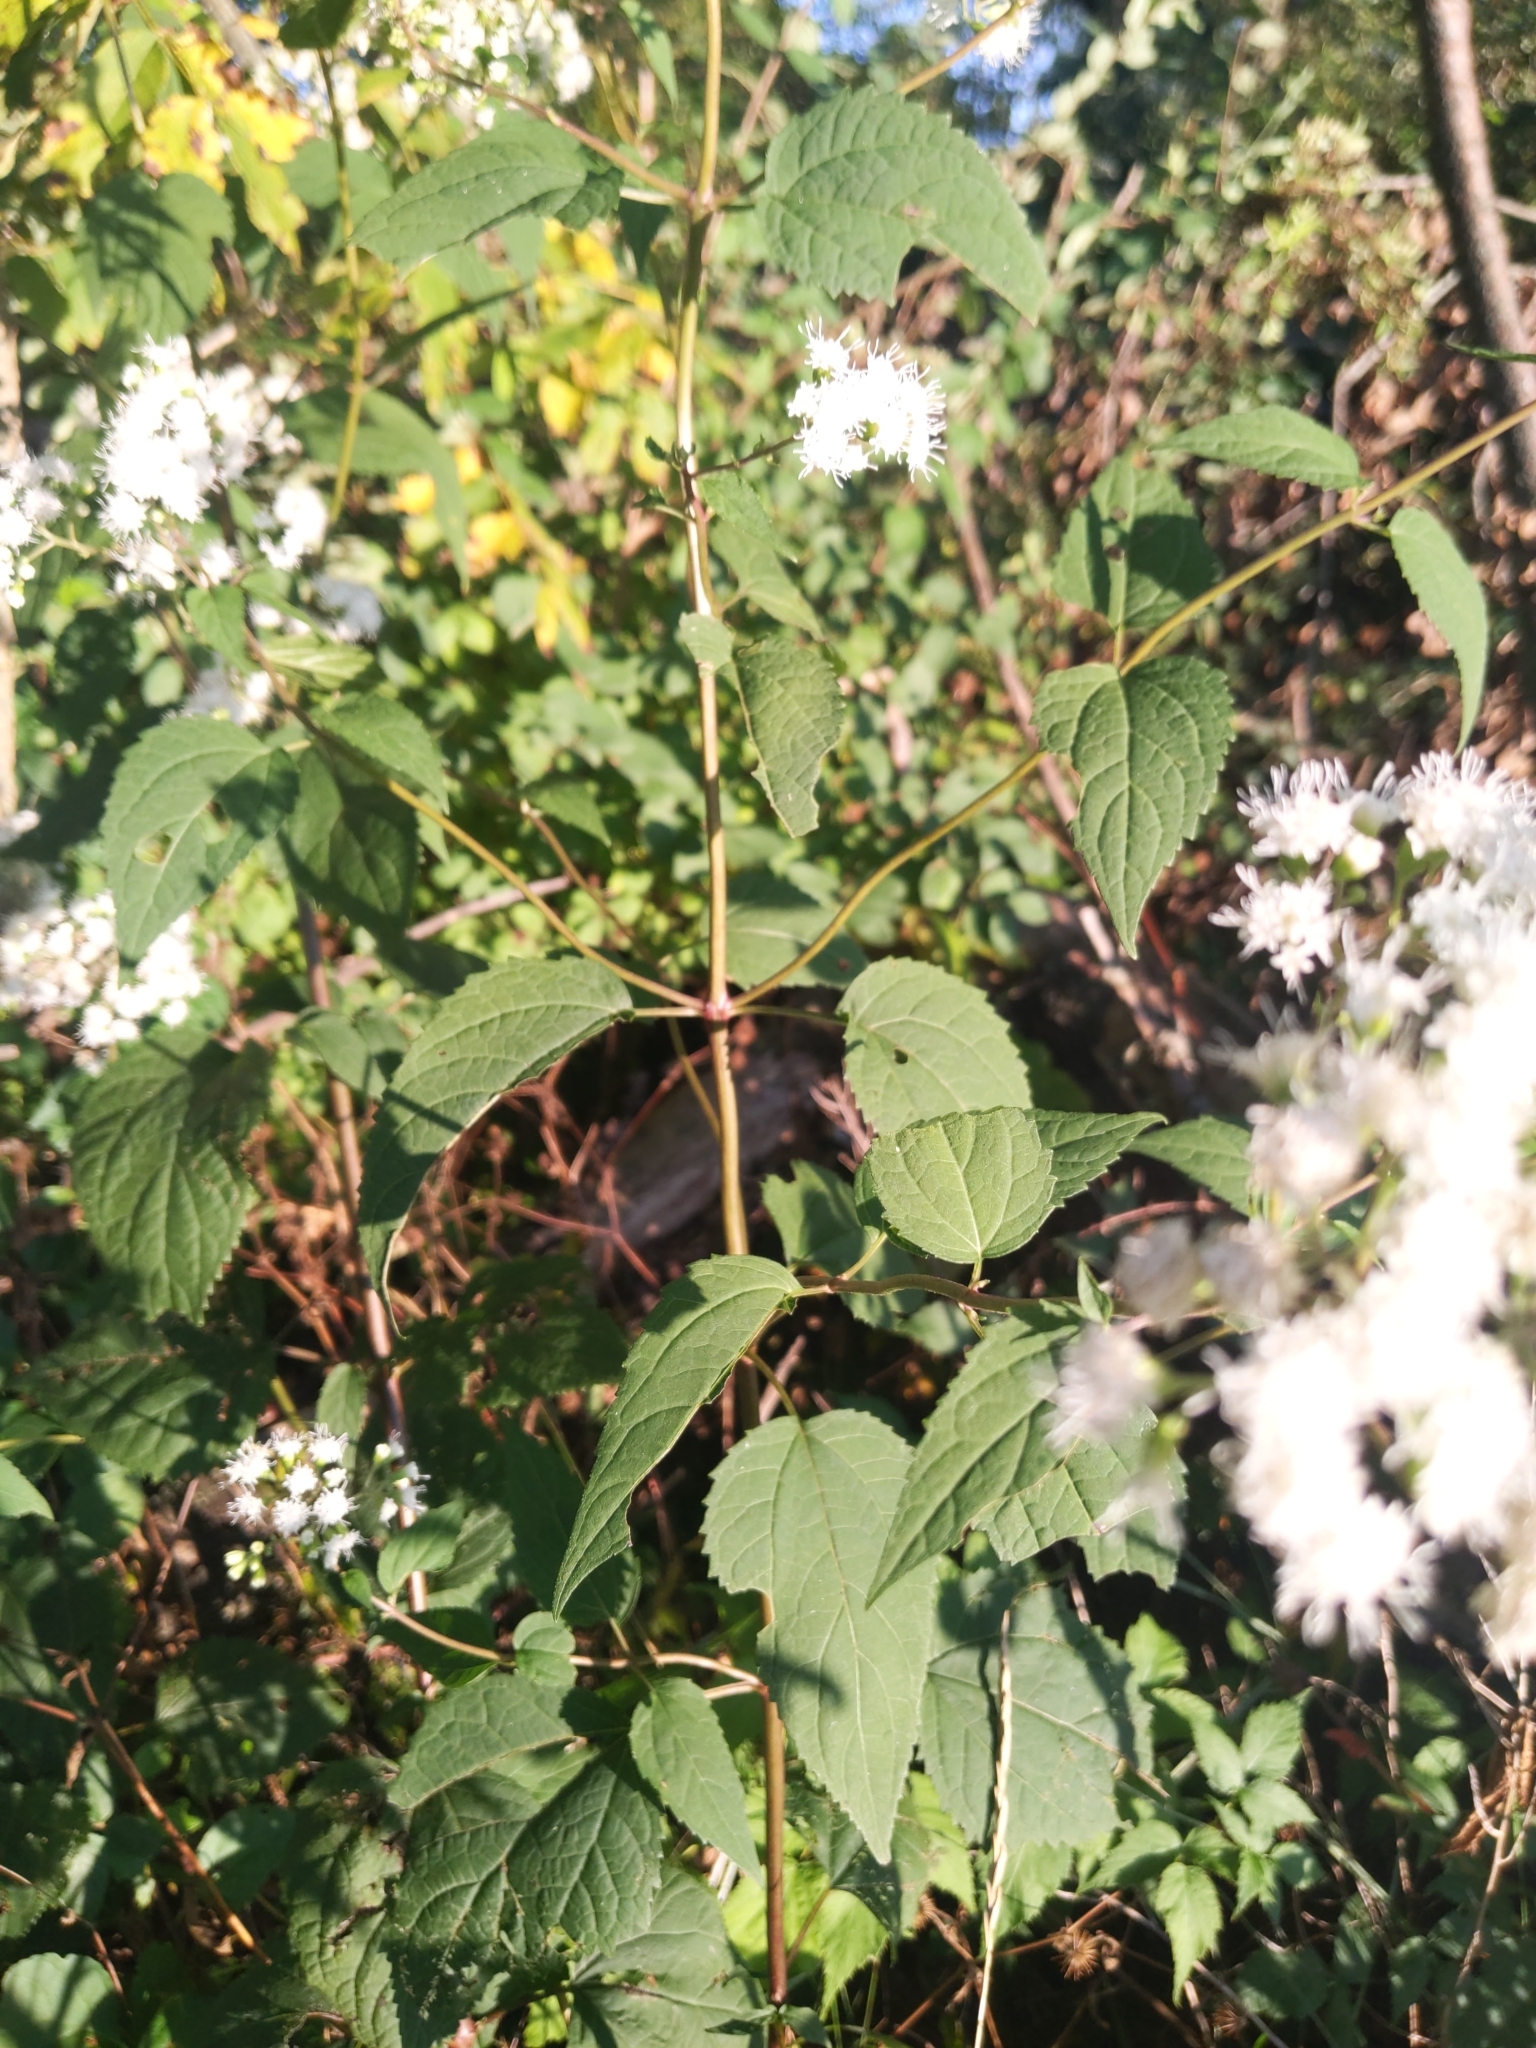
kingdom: Plantae
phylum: Tracheophyta
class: Magnoliopsida
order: Asterales
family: Asteraceae
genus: Ageratina
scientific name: Ageratina altissima
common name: White snakeroot
